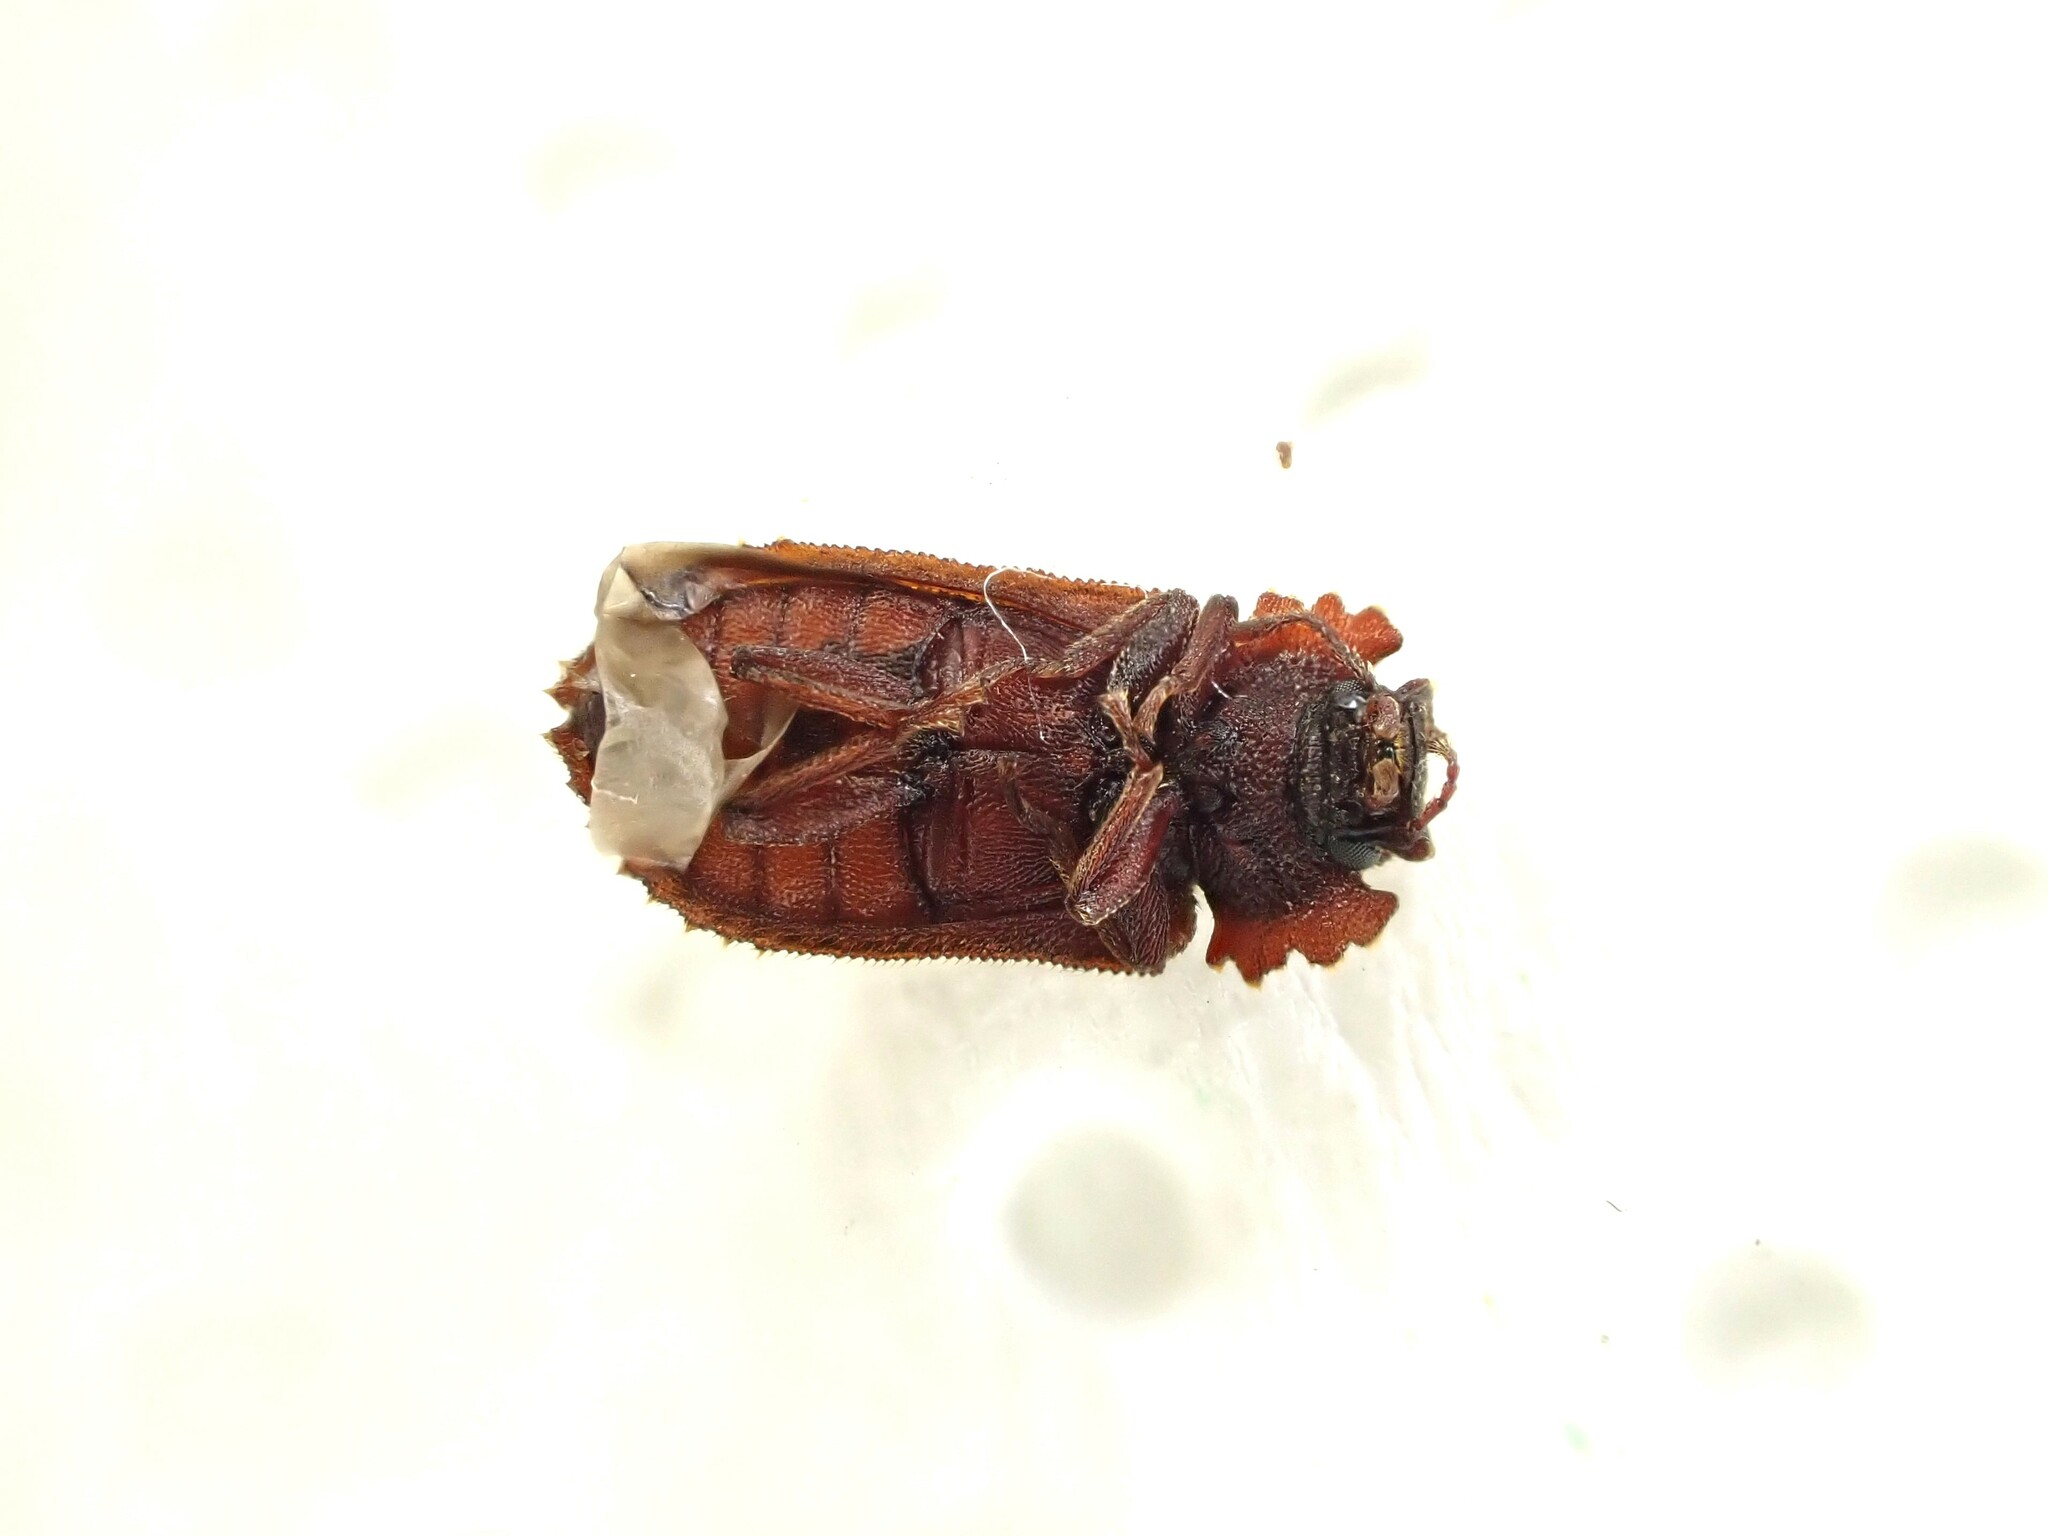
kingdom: Animalia
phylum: Arthropoda
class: Insecta
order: Coleoptera
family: Zopheridae
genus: Pristoderus
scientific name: Pristoderus
